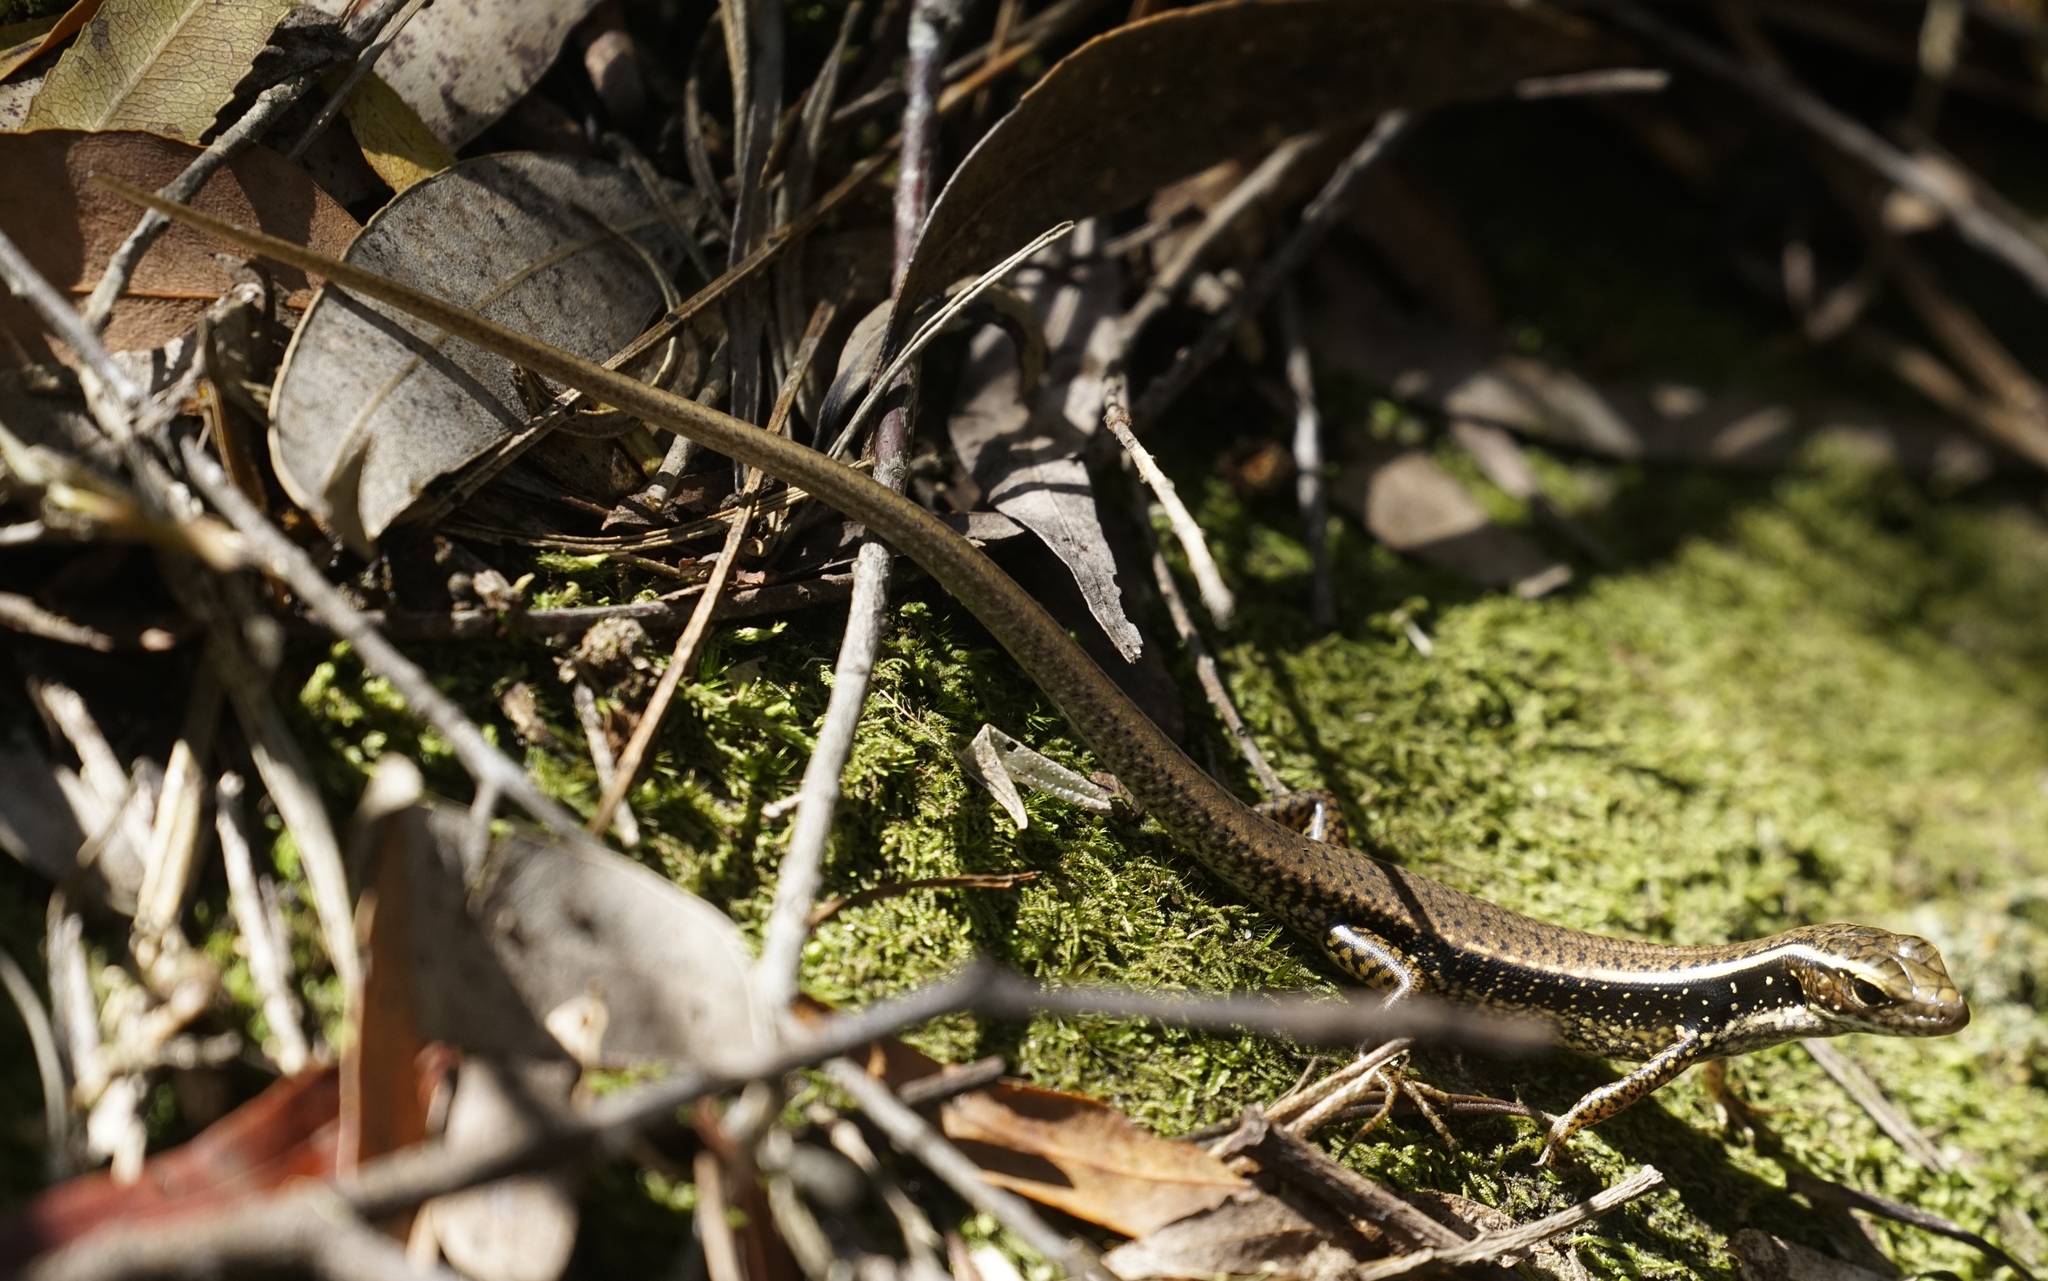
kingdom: Animalia
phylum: Chordata
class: Squamata
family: Scincidae
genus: Eulamprus
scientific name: Eulamprus quoyii
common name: Eastern water skink
